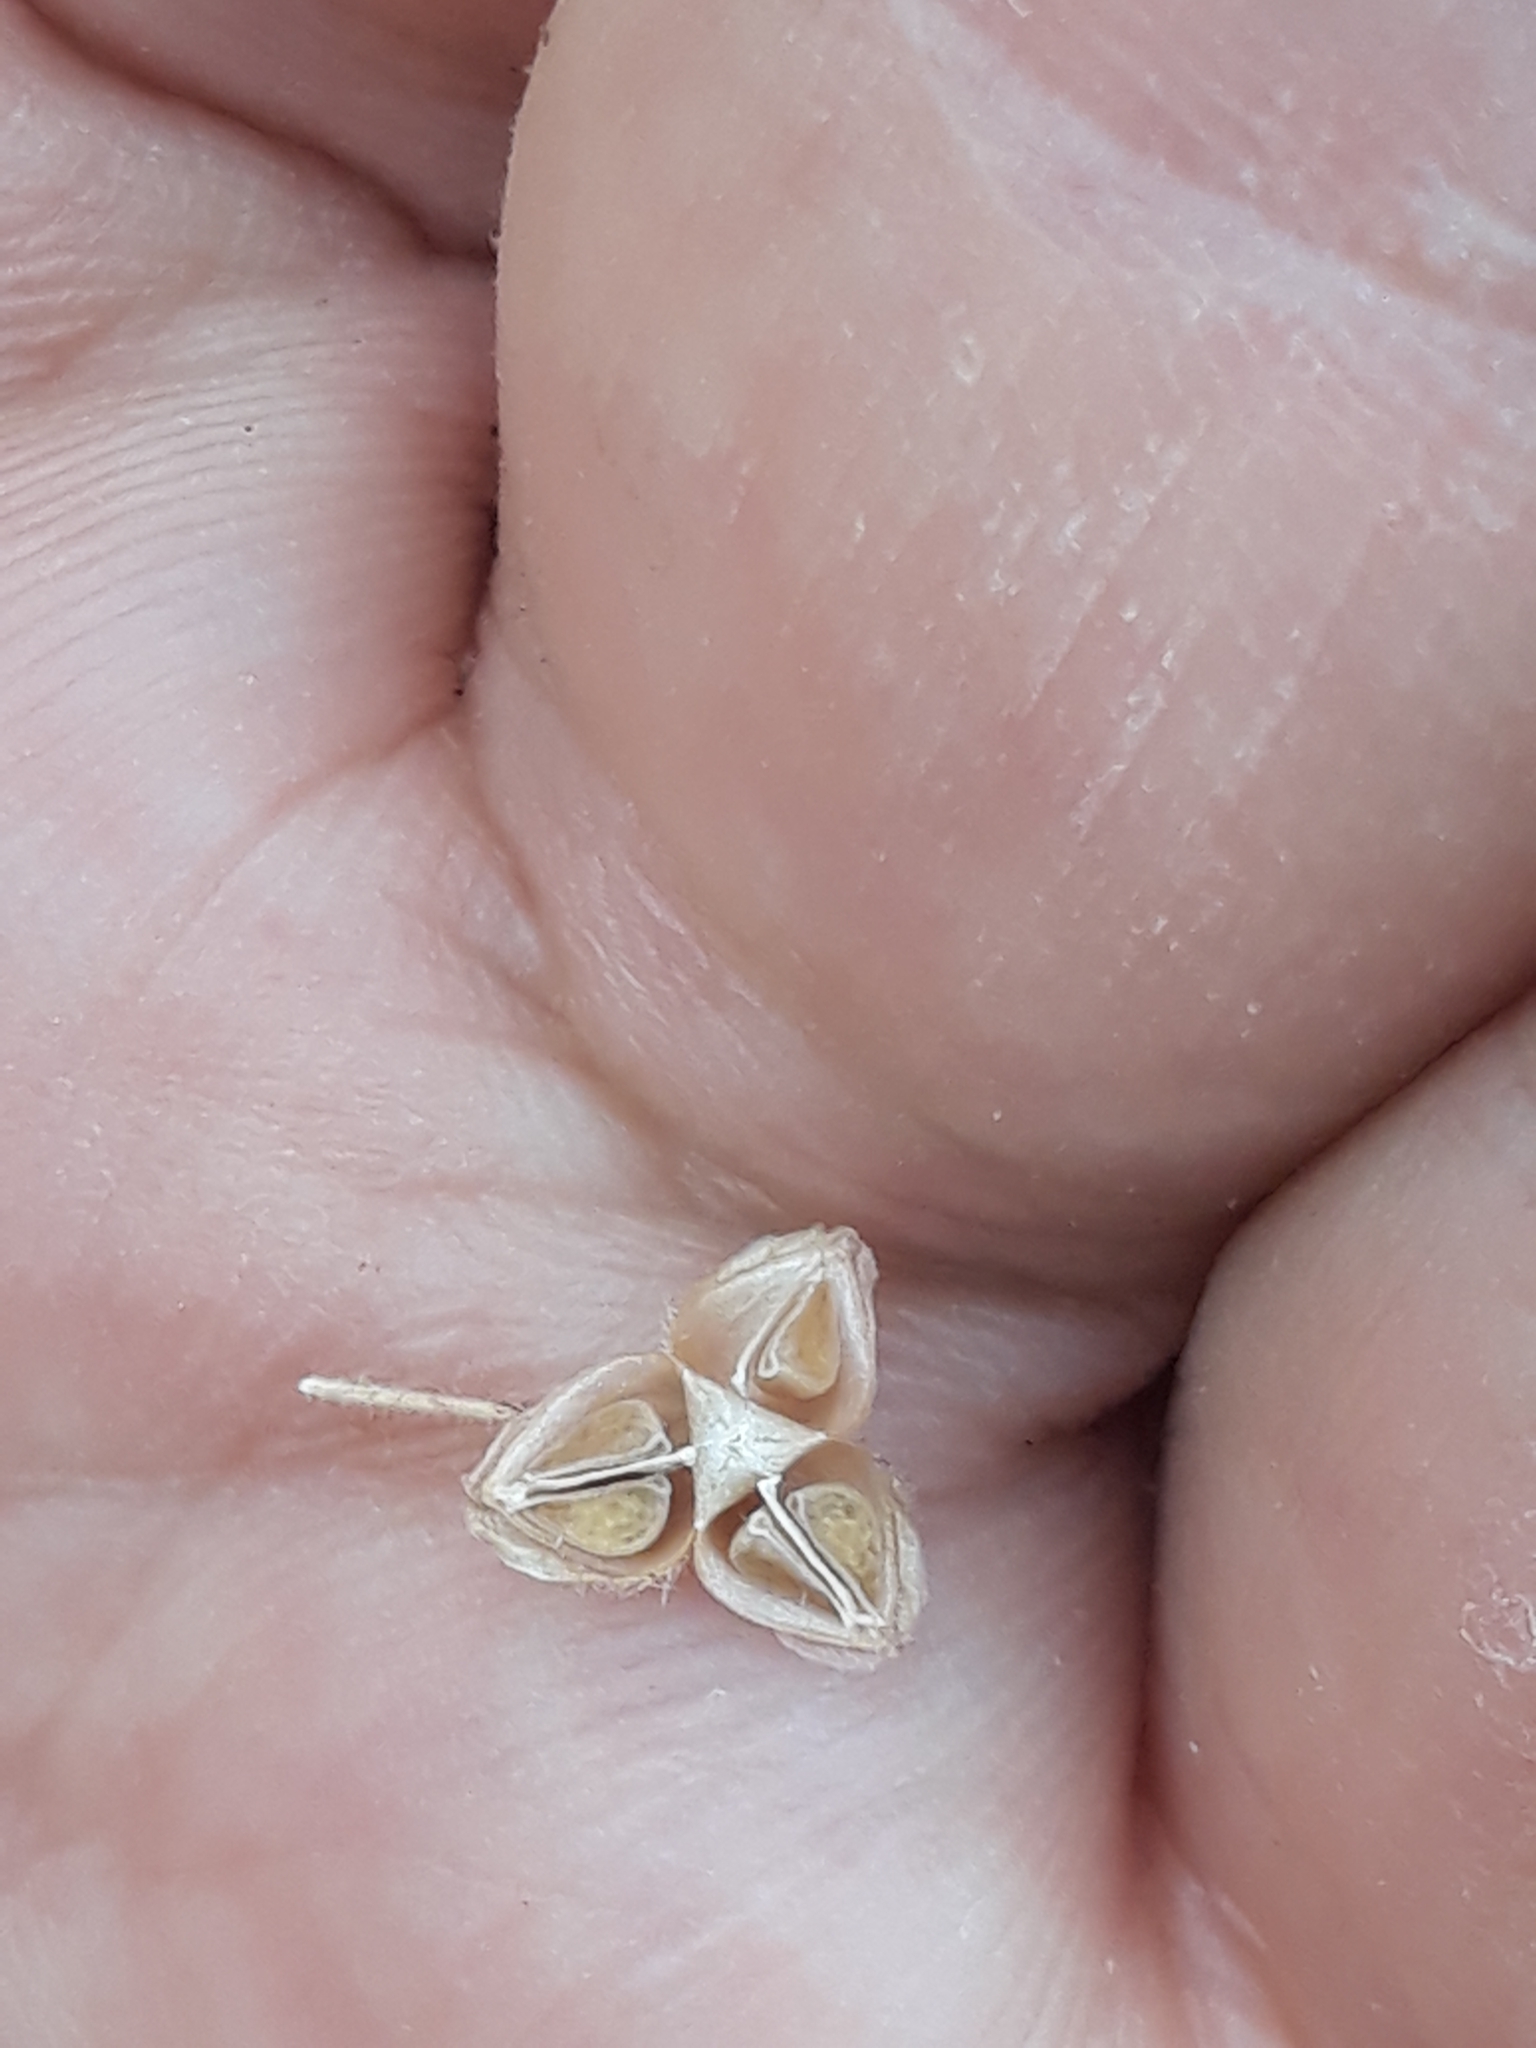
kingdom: Plantae
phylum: Tracheophyta
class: Magnoliopsida
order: Malvales
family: Cistaceae
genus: Fumana
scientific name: Fumana thymifolia
